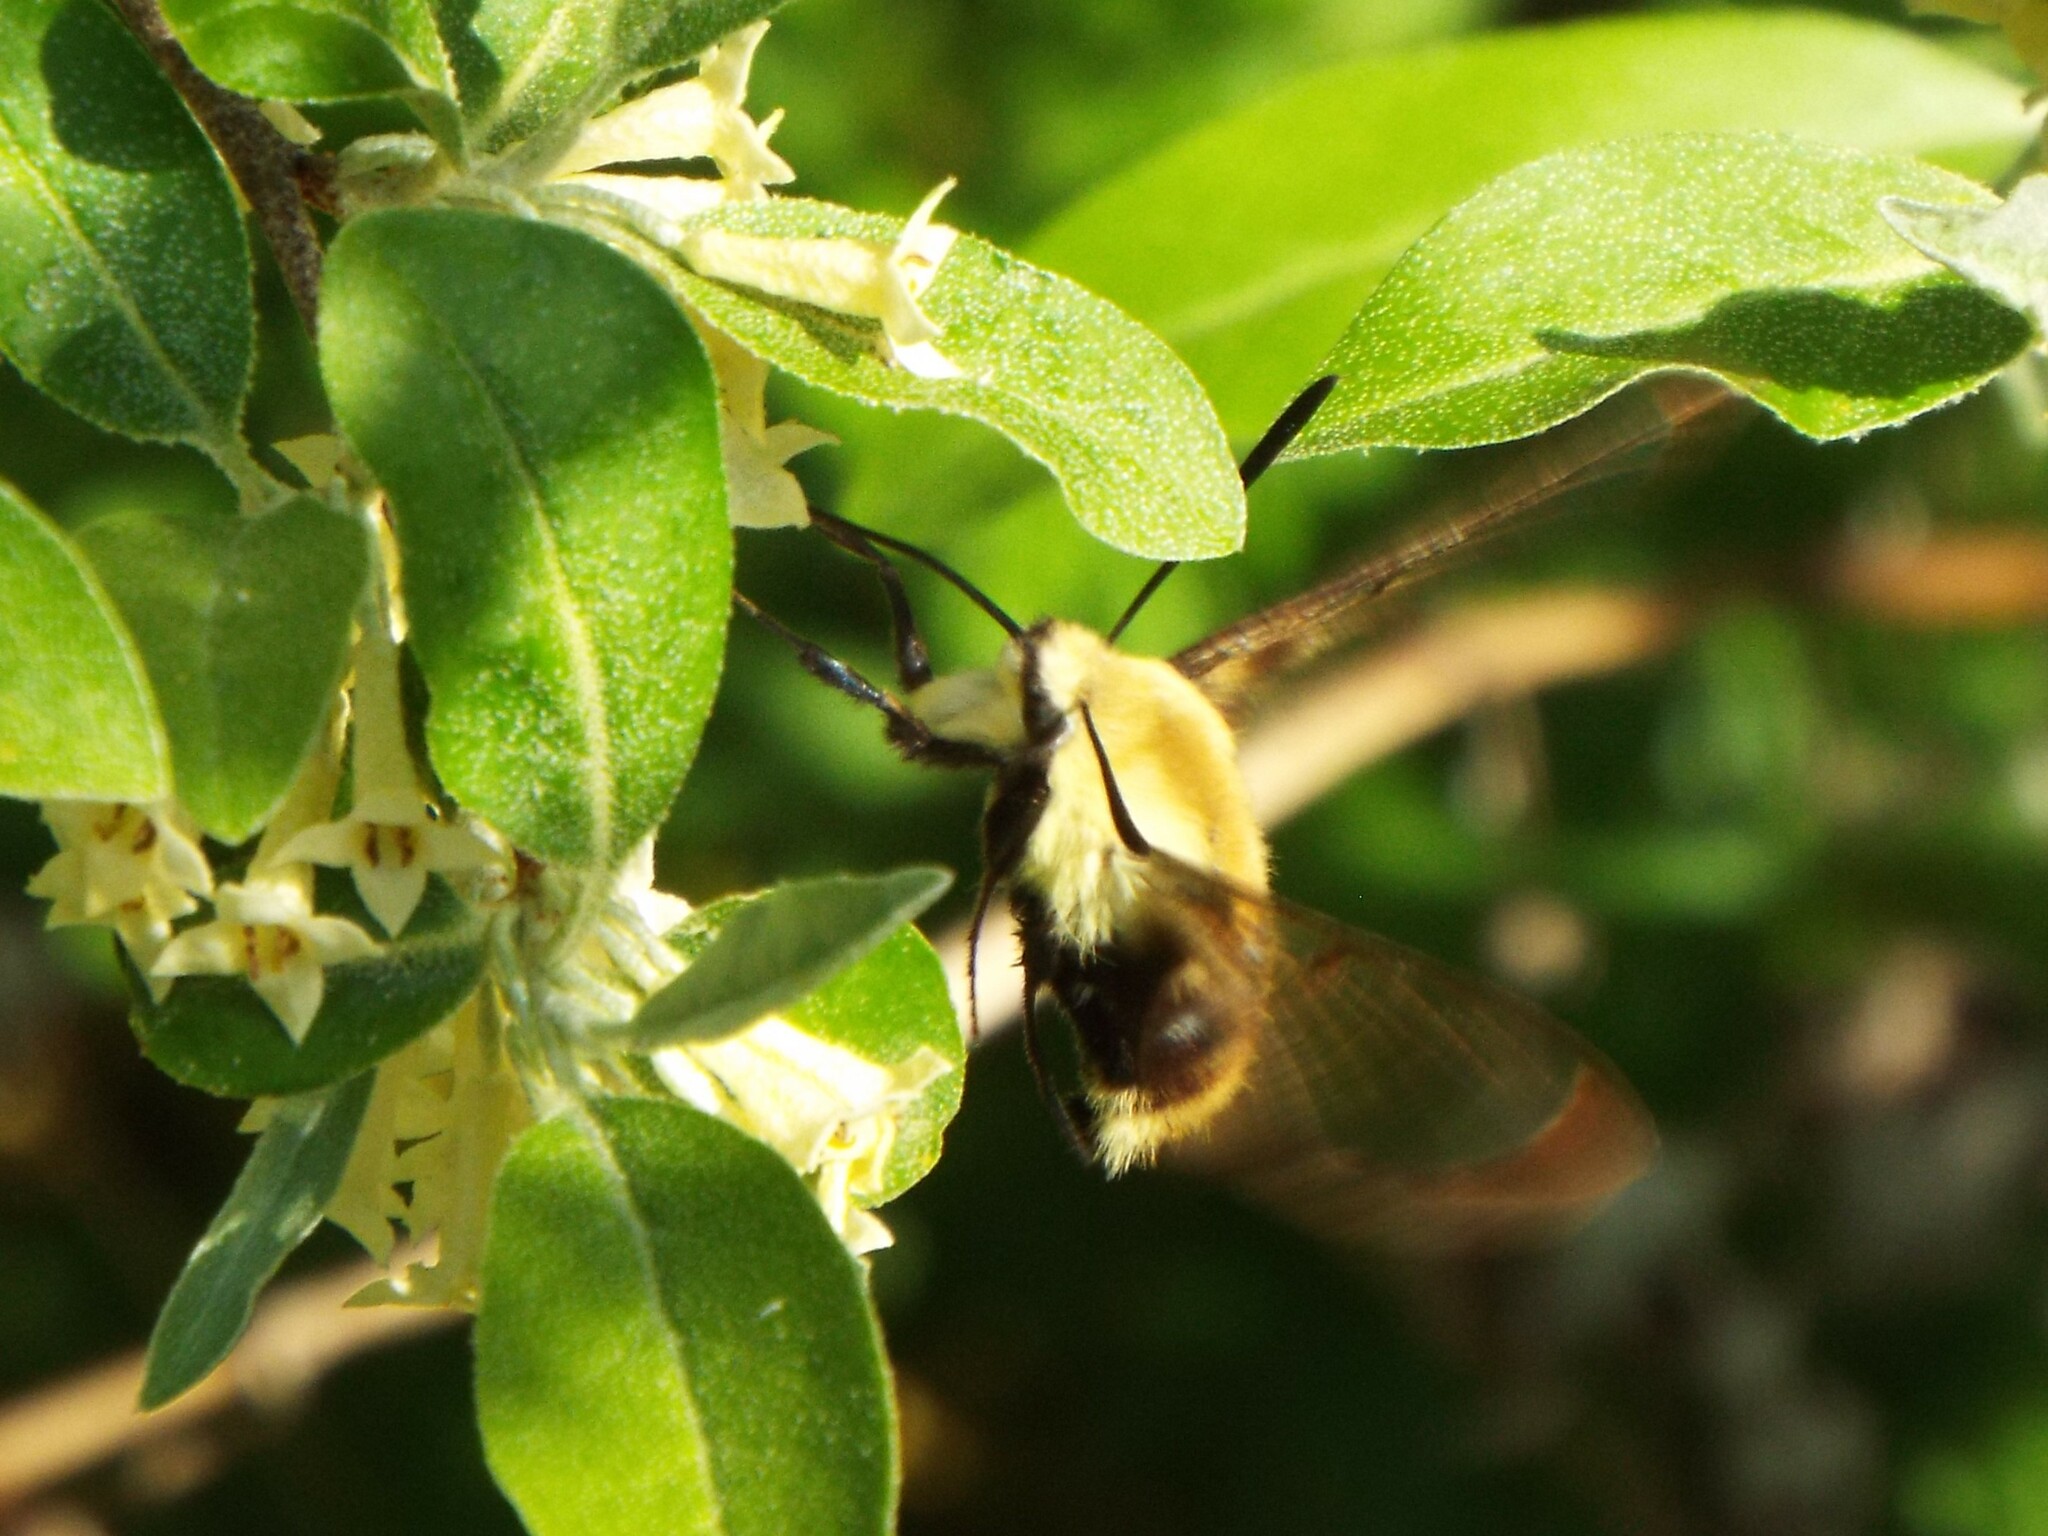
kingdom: Animalia
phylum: Arthropoda
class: Insecta
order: Lepidoptera
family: Sphingidae
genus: Hemaris
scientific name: Hemaris diffinis
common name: Bumblebee moth
